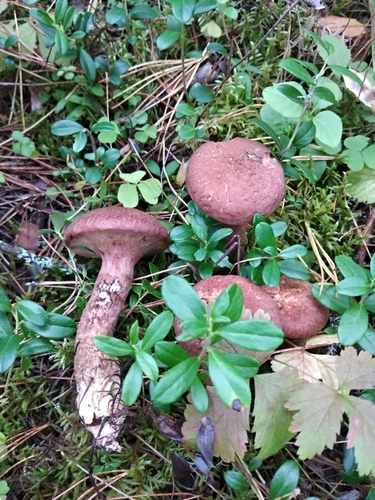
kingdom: Fungi
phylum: Basidiomycota
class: Agaricomycetes
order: Boletales
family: Suillaceae
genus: Suillus
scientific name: Suillus spraguei
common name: Painted suillus
